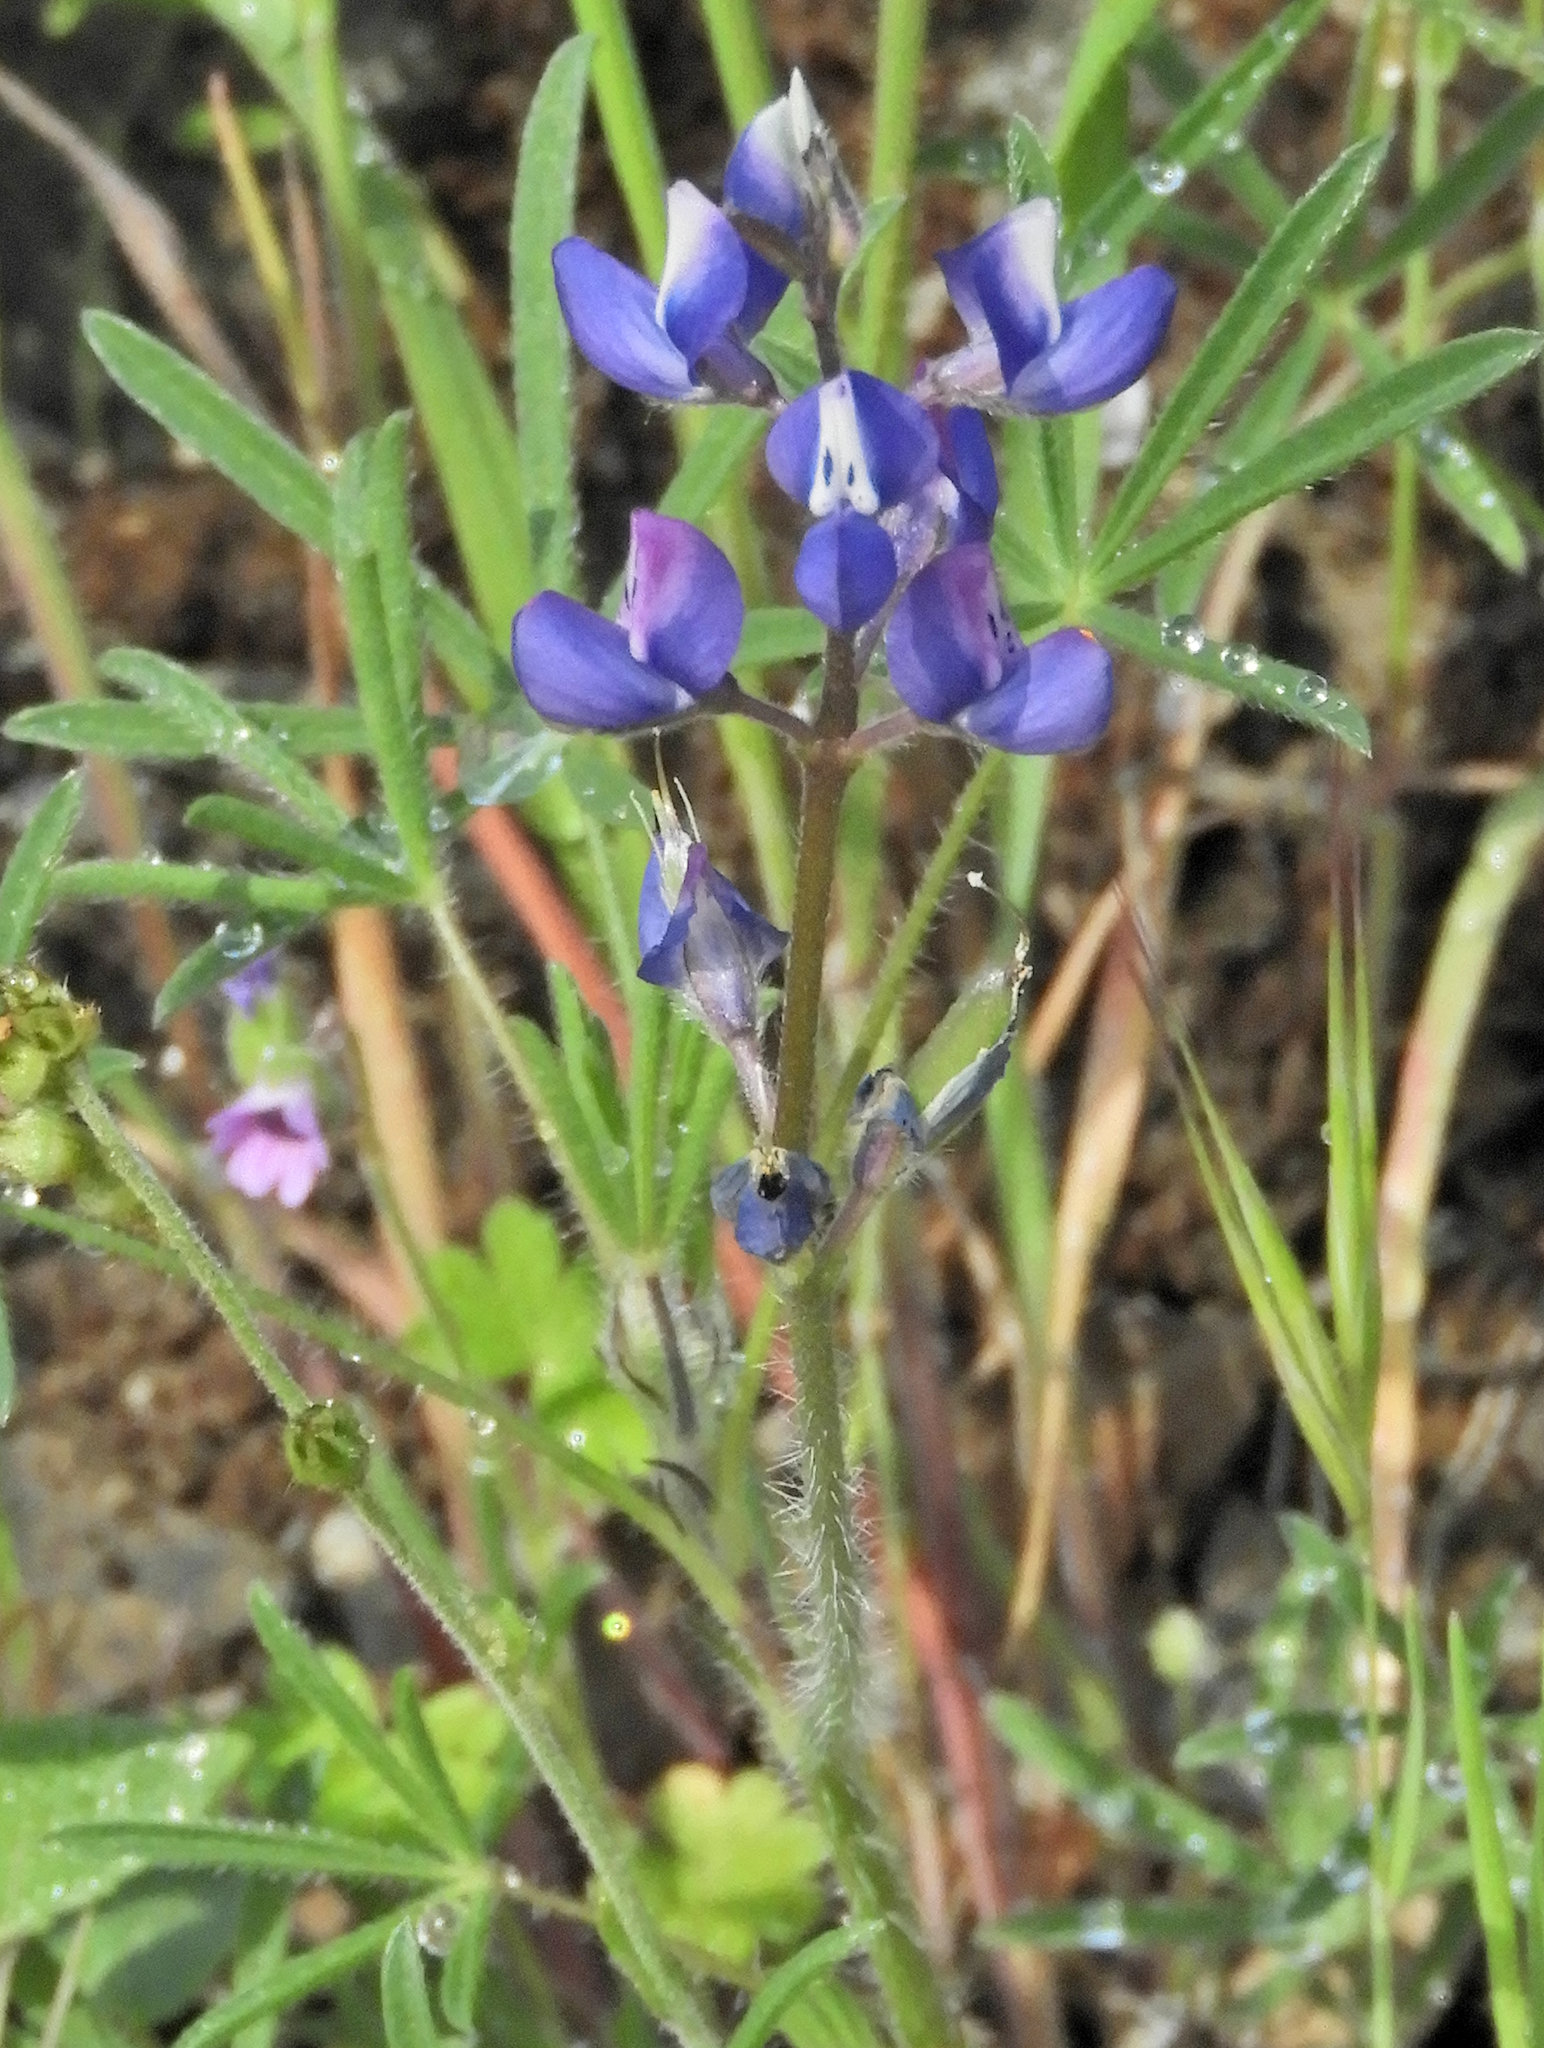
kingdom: Plantae
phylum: Tracheophyta
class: Magnoliopsida
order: Fabales
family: Fabaceae
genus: Lupinus
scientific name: Lupinus bicolor
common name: Miniature lupine
